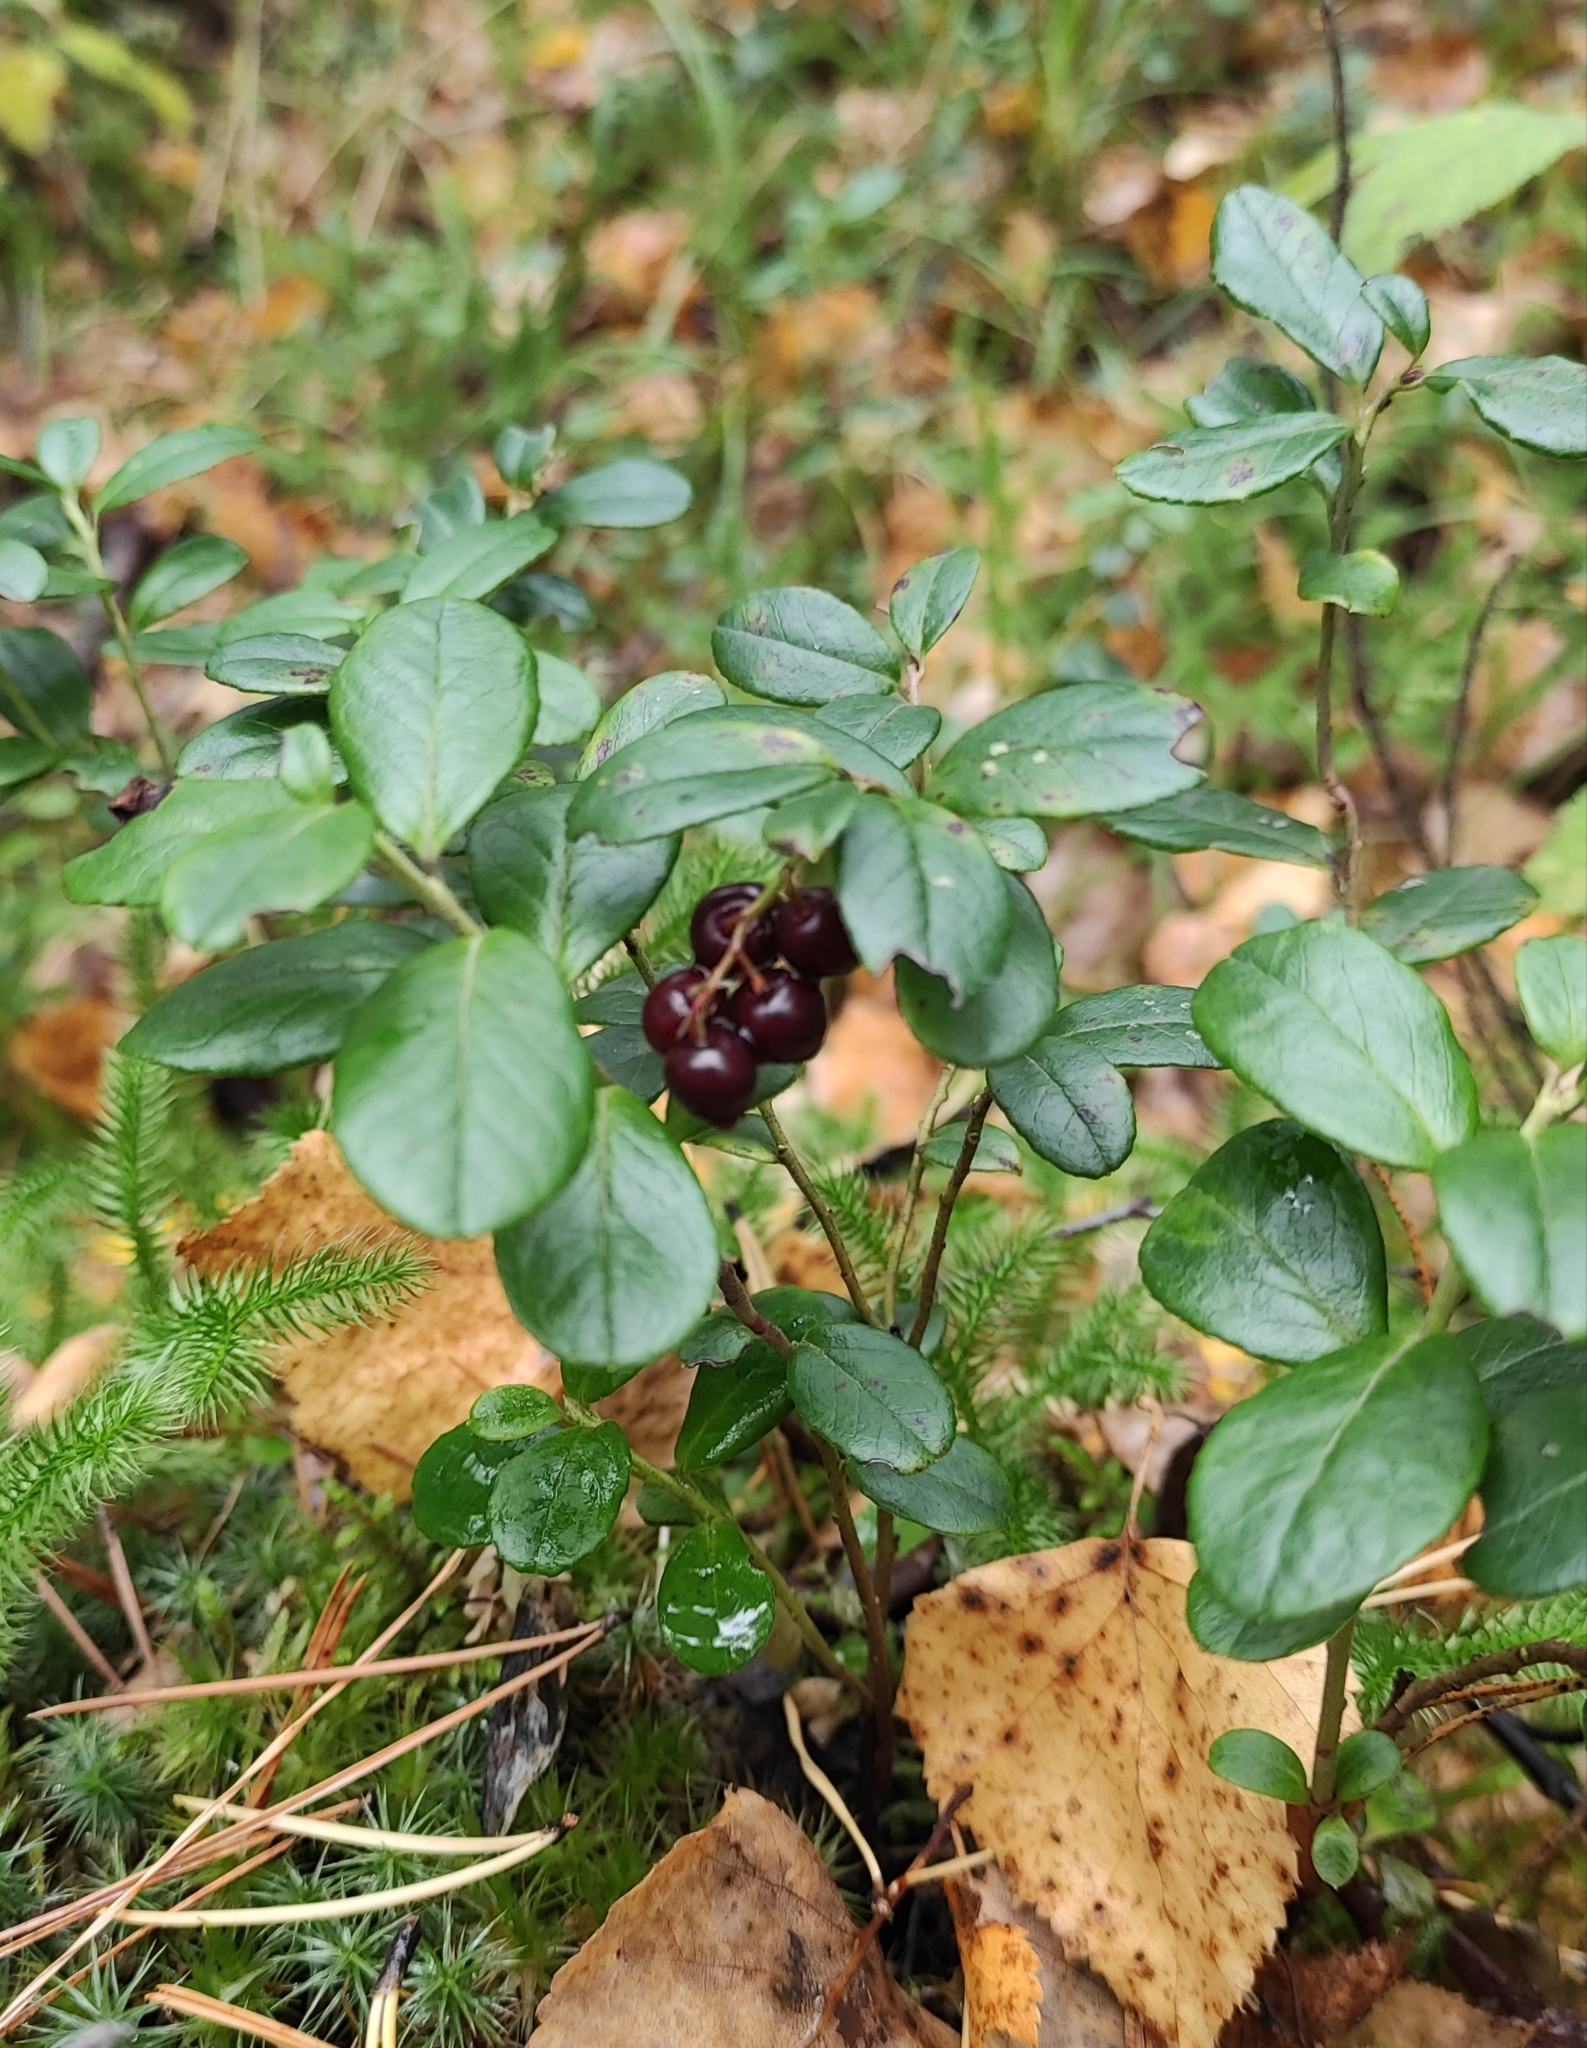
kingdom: Plantae
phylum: Tracheophyta
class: Magnoliopsida
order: Ericales
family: Ericaceae
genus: Vaccinium
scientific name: Vaccinium vitis-idaea
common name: Cowberry
